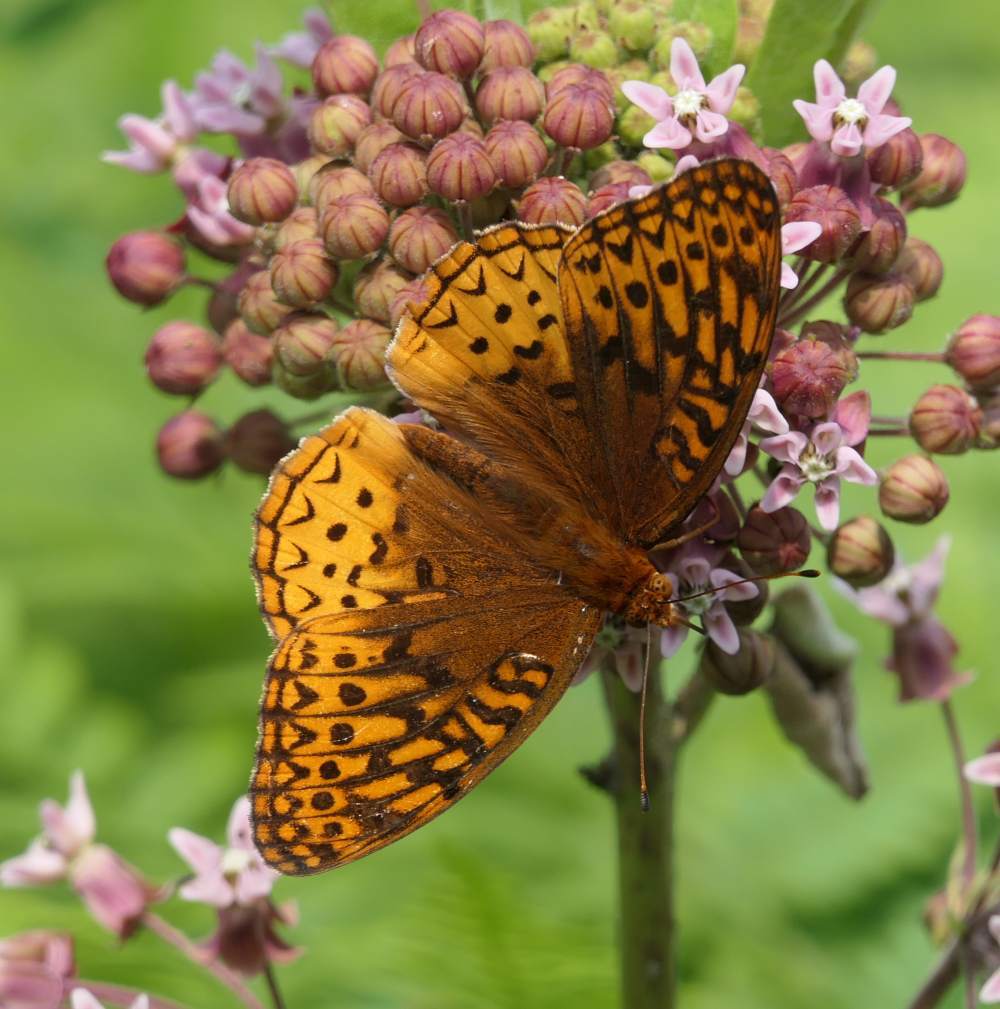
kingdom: Animalia
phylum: Arthropoda
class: Insecta
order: Lepidoptera
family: Nymphalidae
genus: Speyeria
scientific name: Speyeria cybele
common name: Great spangled fritillary
